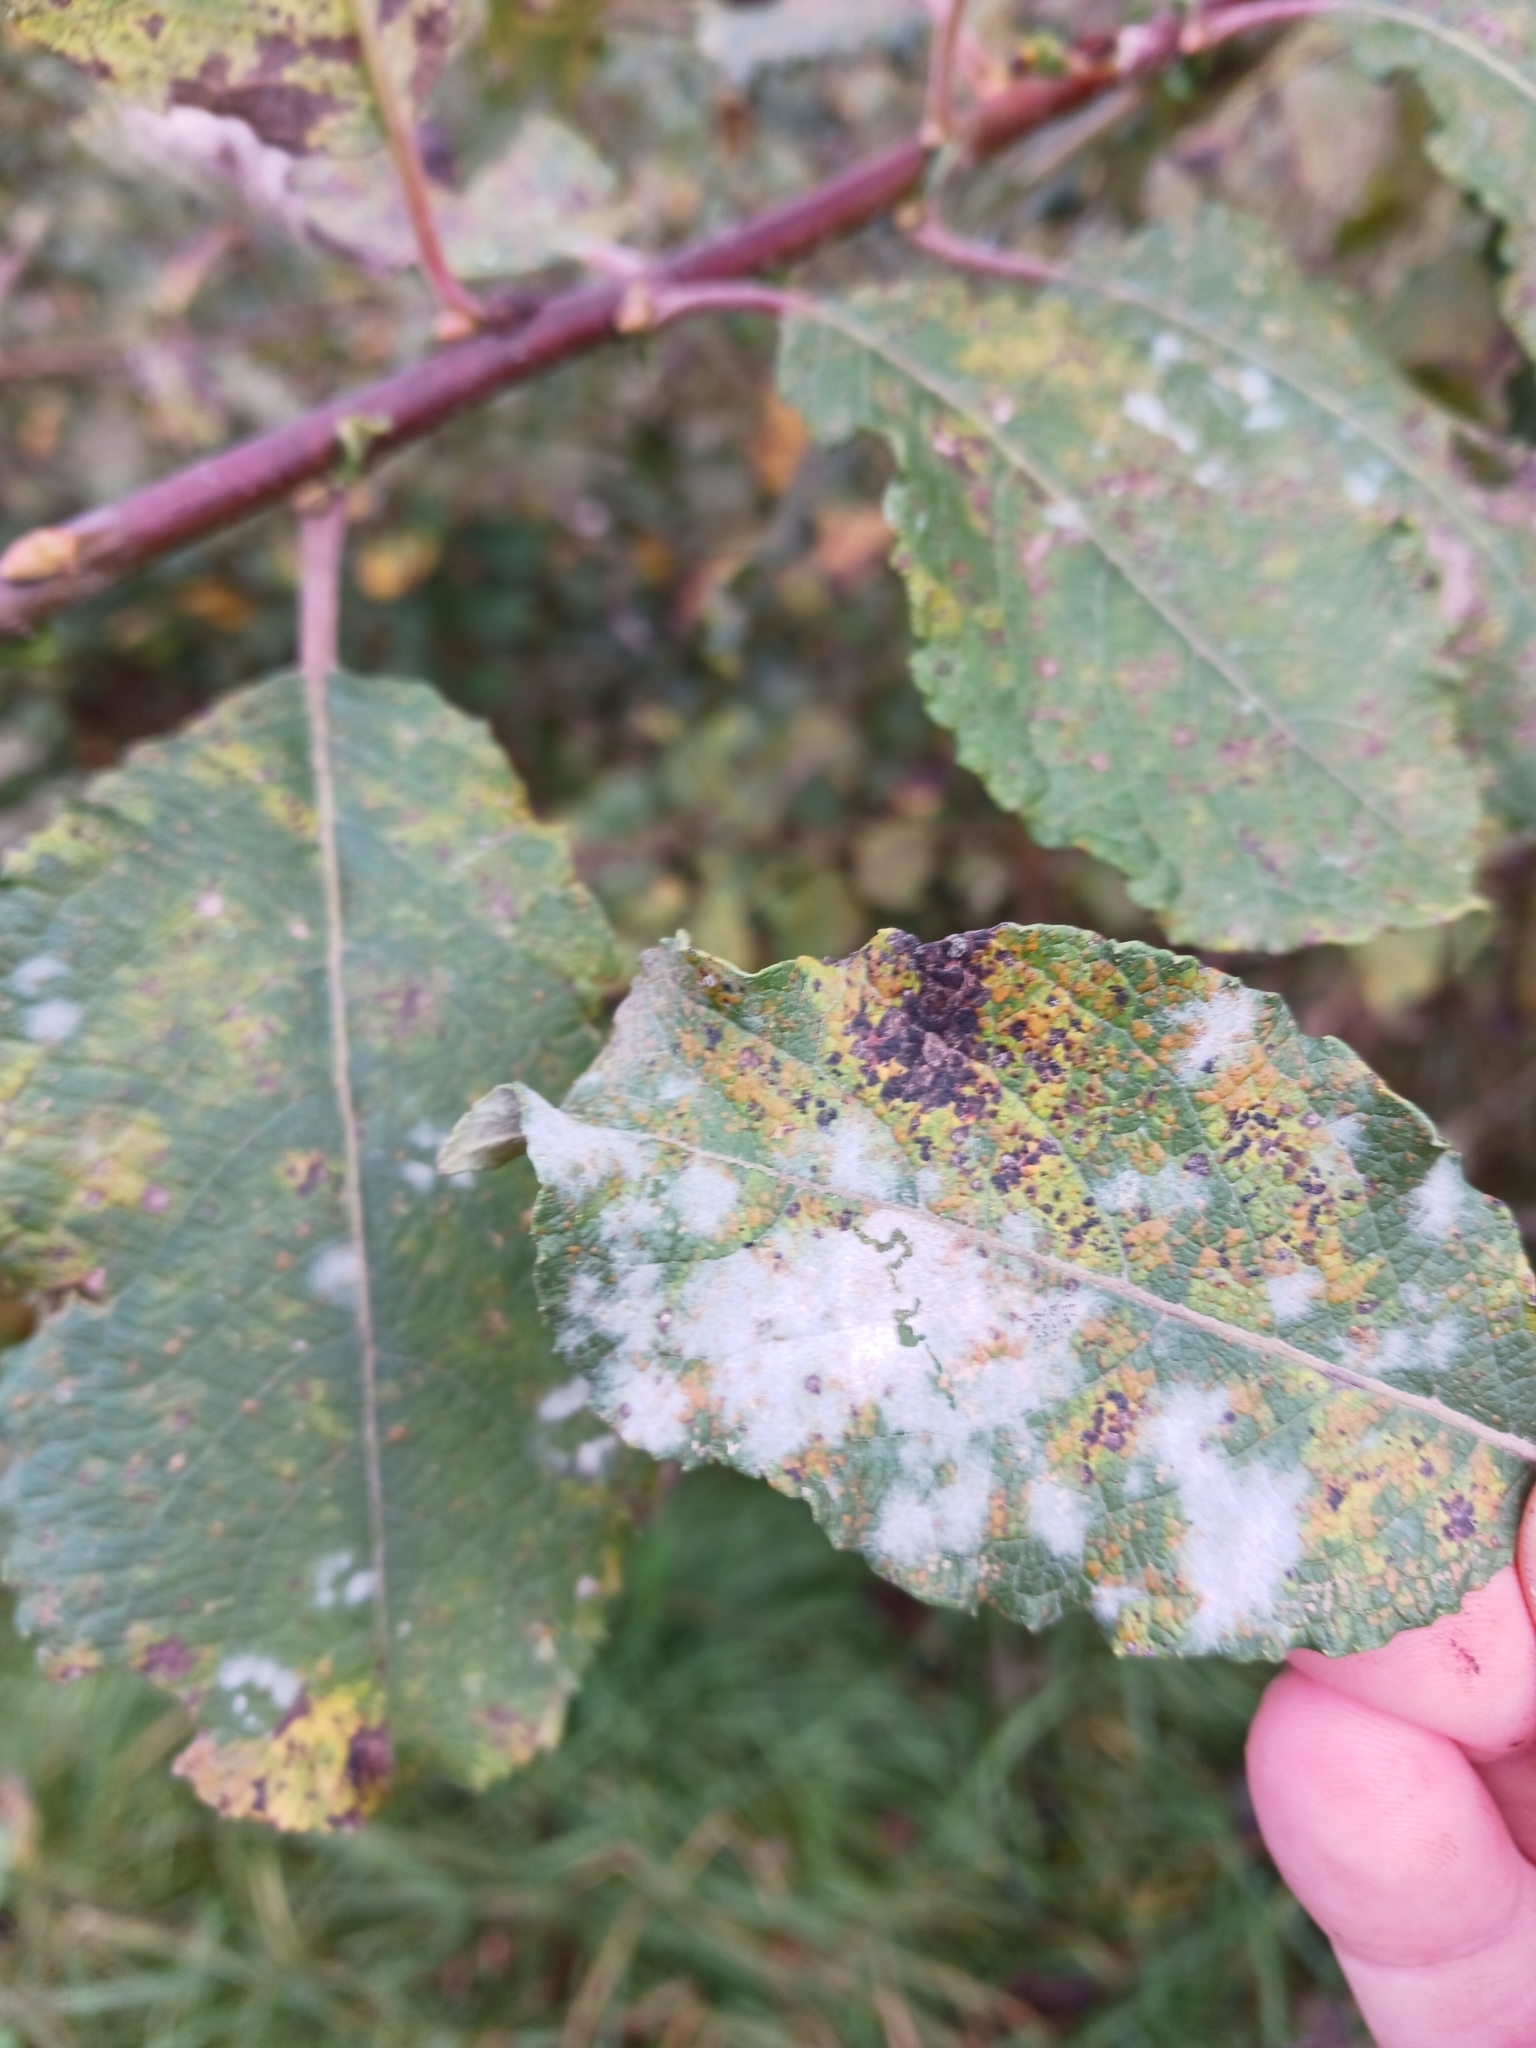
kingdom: Fungi
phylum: Ascomycota
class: Leotiomycetes
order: Helotiales
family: Erysiphaceae
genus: Erysiphe
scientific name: Erysiphe capreae
